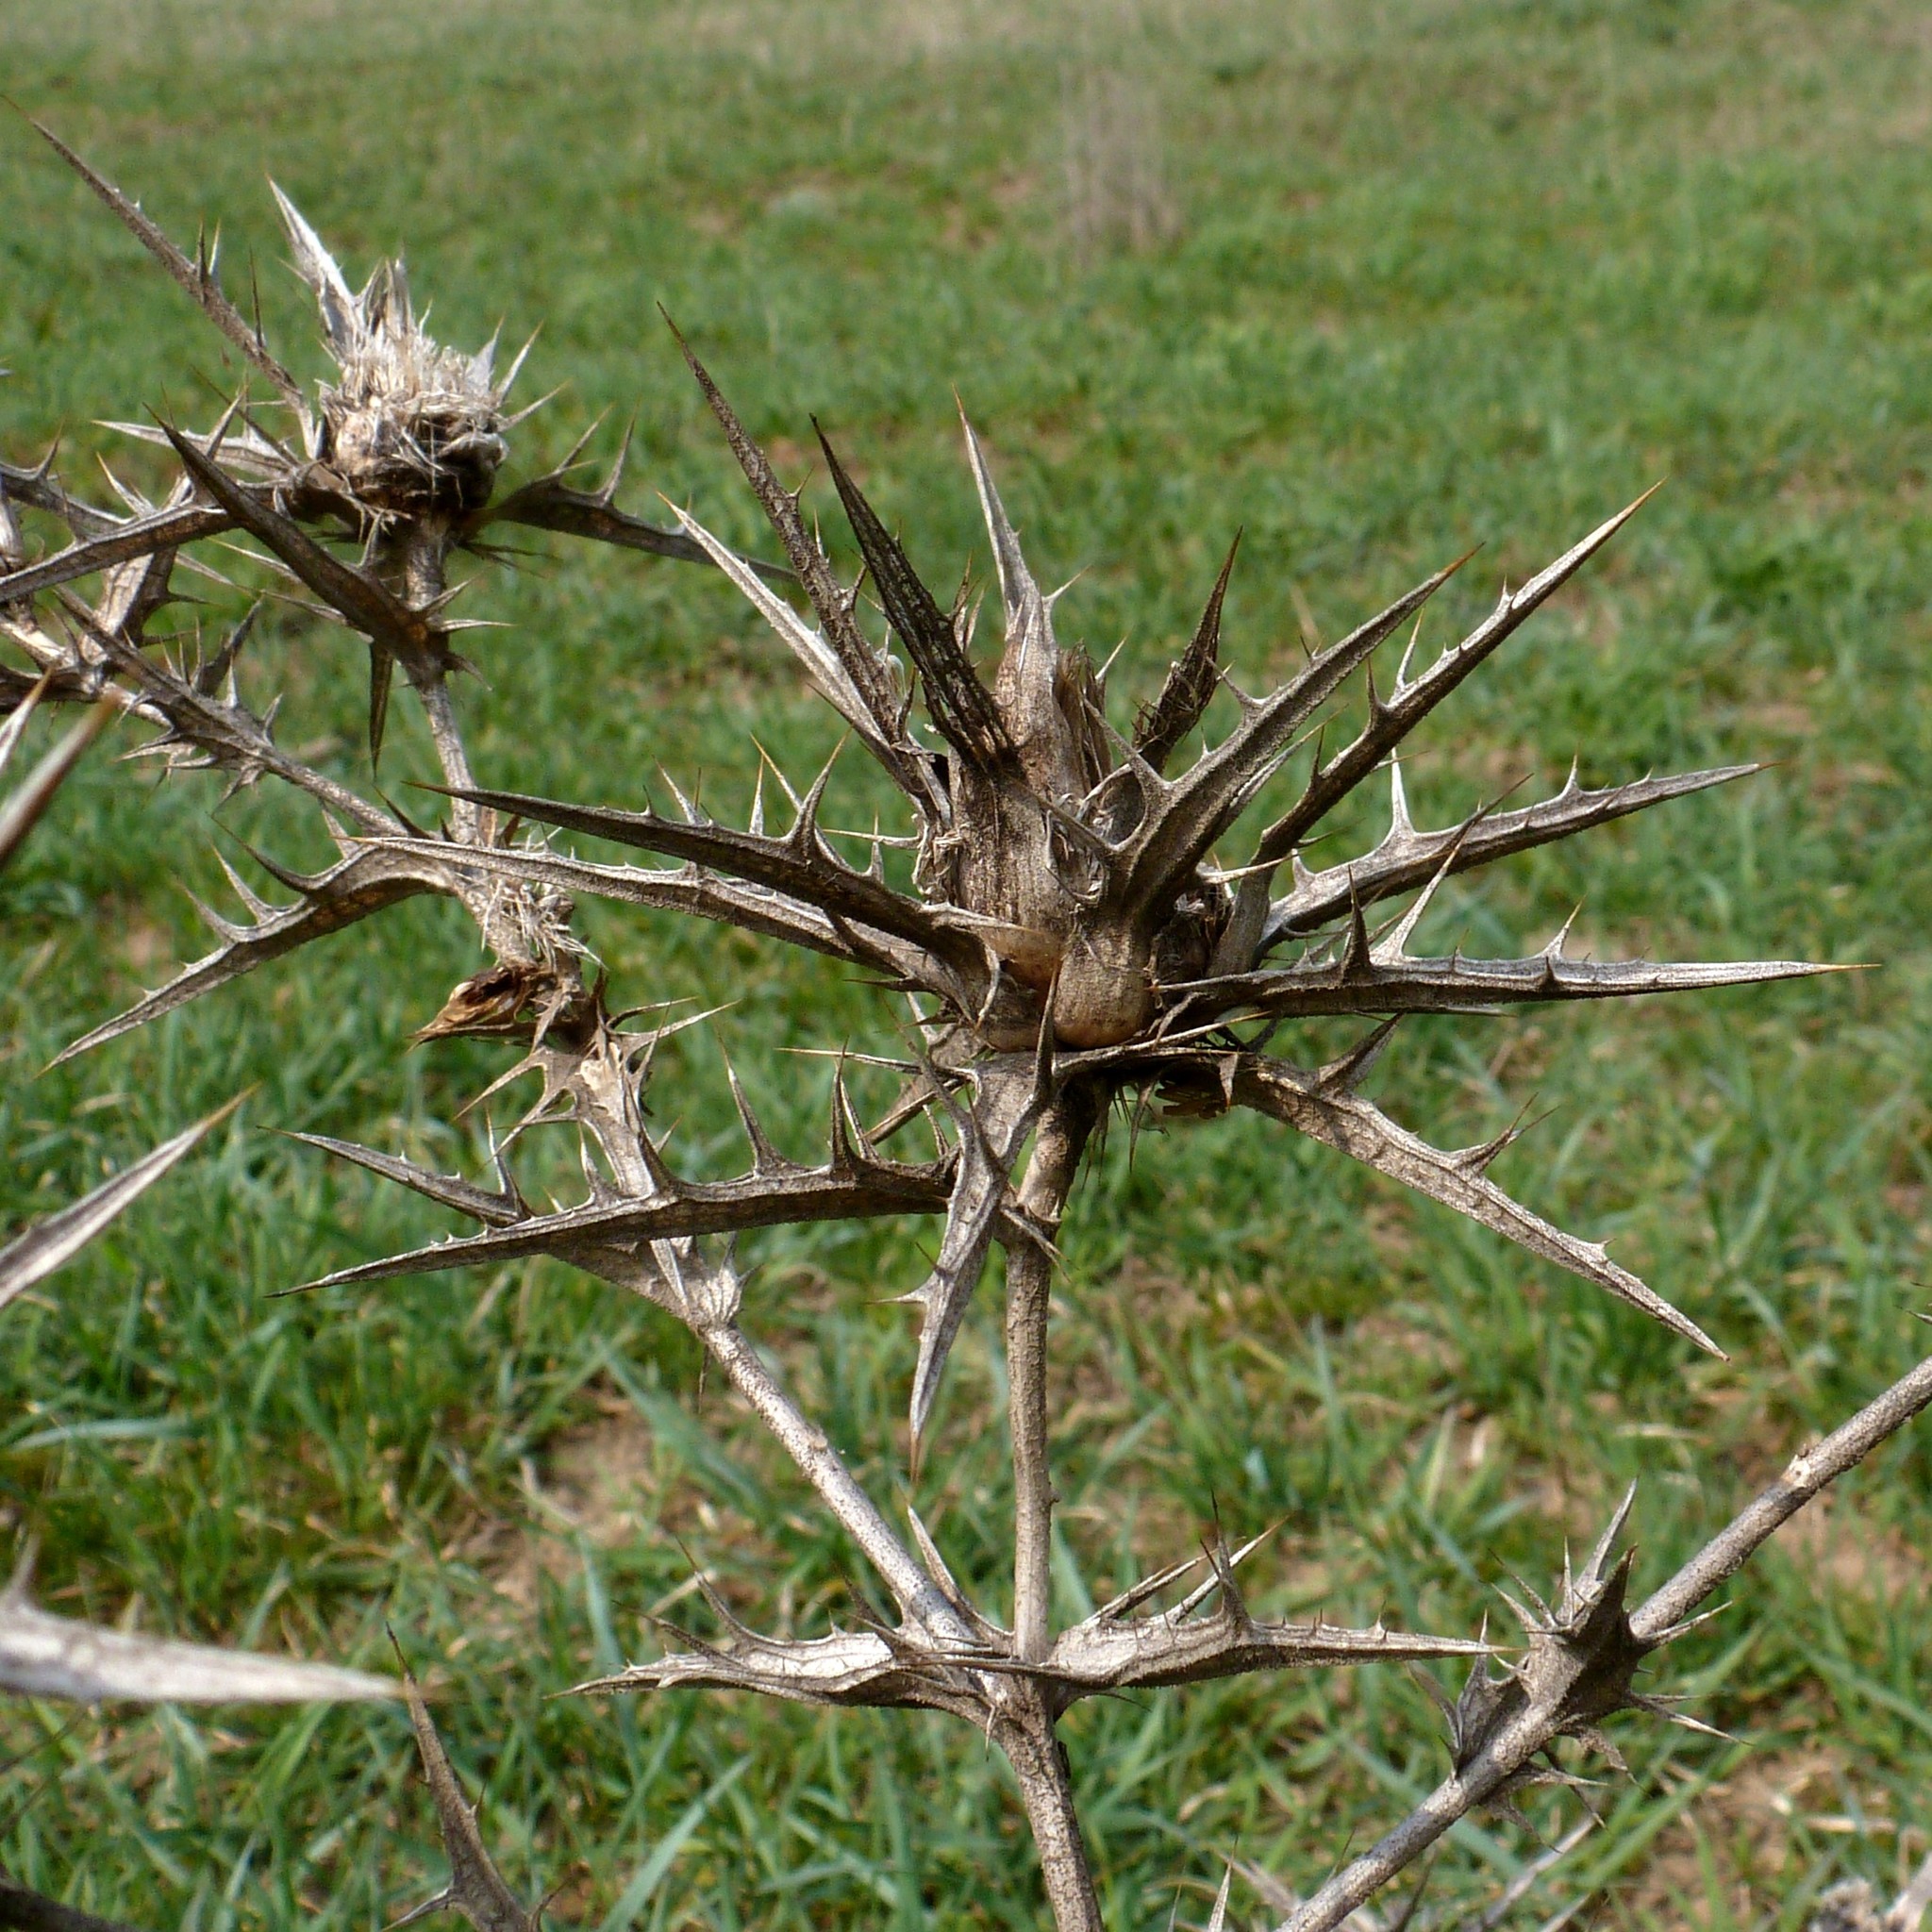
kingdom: Plantae
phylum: Tracheophyta
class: Magnoliopsida
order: Asterales
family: Asteraceae
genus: Carthamus
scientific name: Carthamus lanatus
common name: Downy safflower
